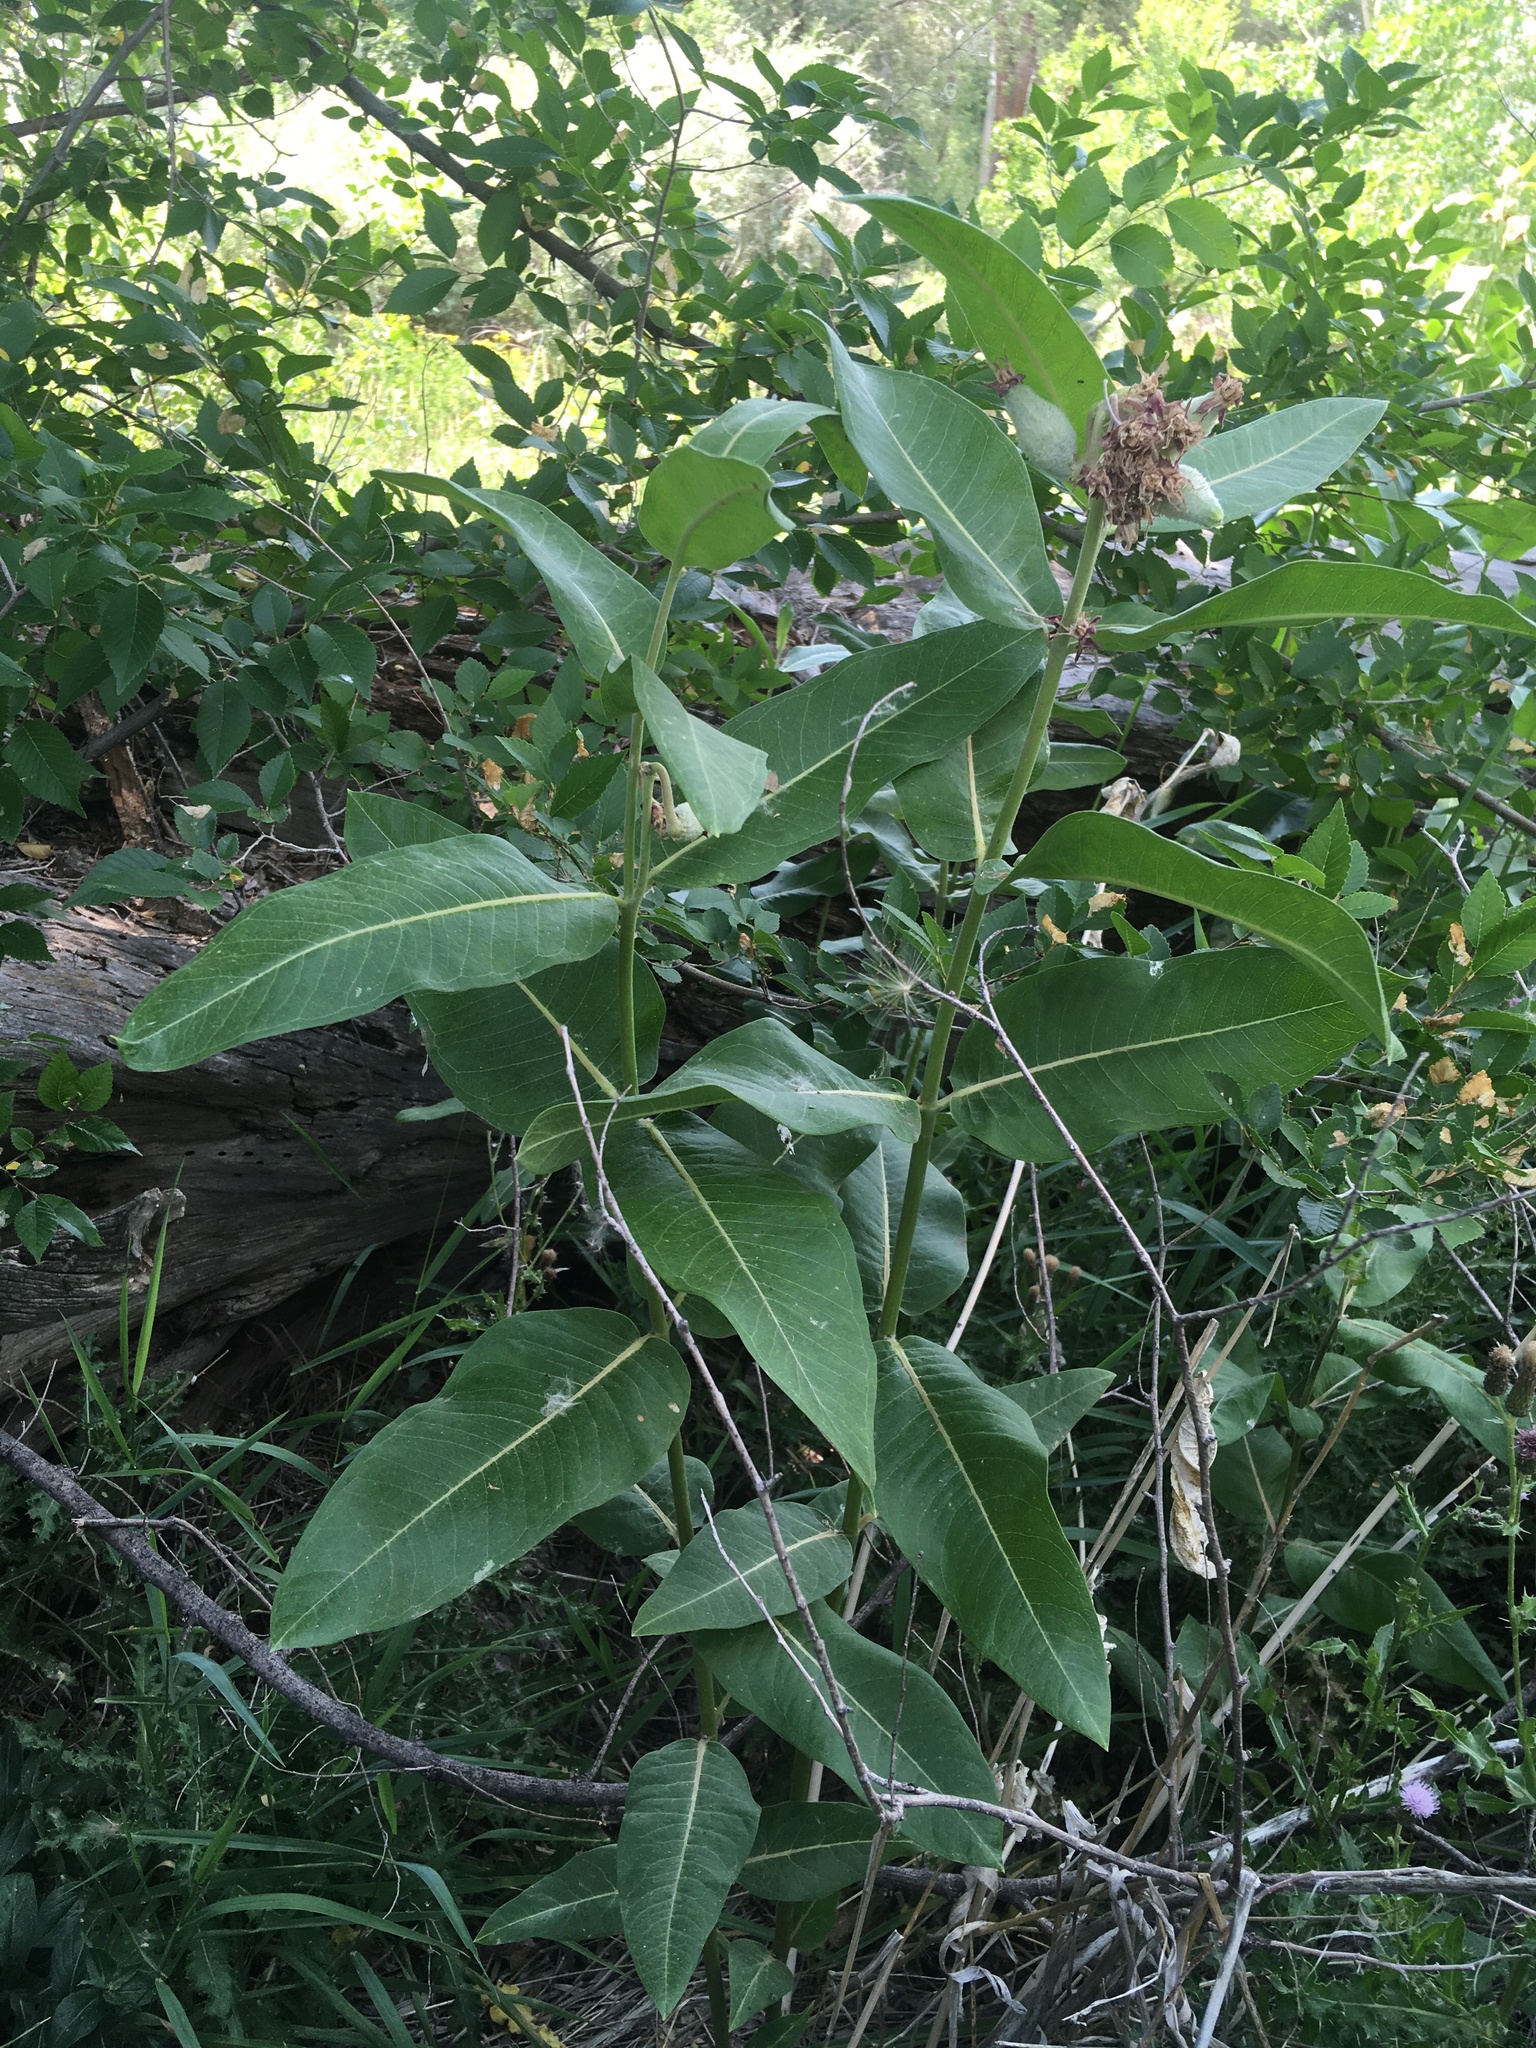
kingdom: Plantae
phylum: Tracheophyta
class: Magnoliopsida
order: Gentianales
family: Apocynaceae
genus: Asclepias
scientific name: Asclepias speciosa
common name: Showy milkweed
